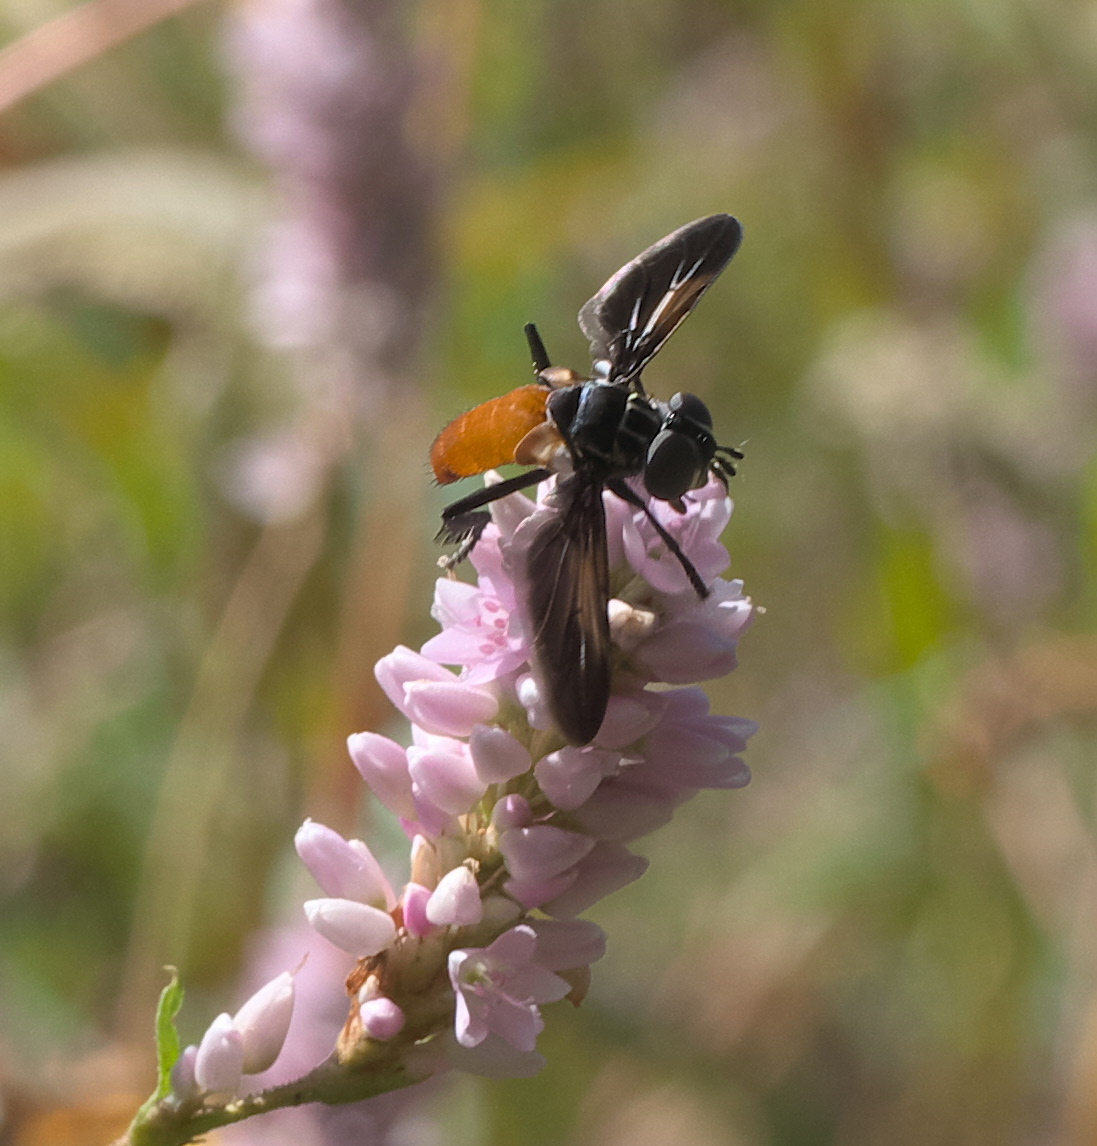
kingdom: Animalia
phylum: Arthropoda
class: Insecta
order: Diptera
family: Tachinidae
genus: Trichopoda
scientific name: Trichopoda pennipes
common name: Tachinid fly
